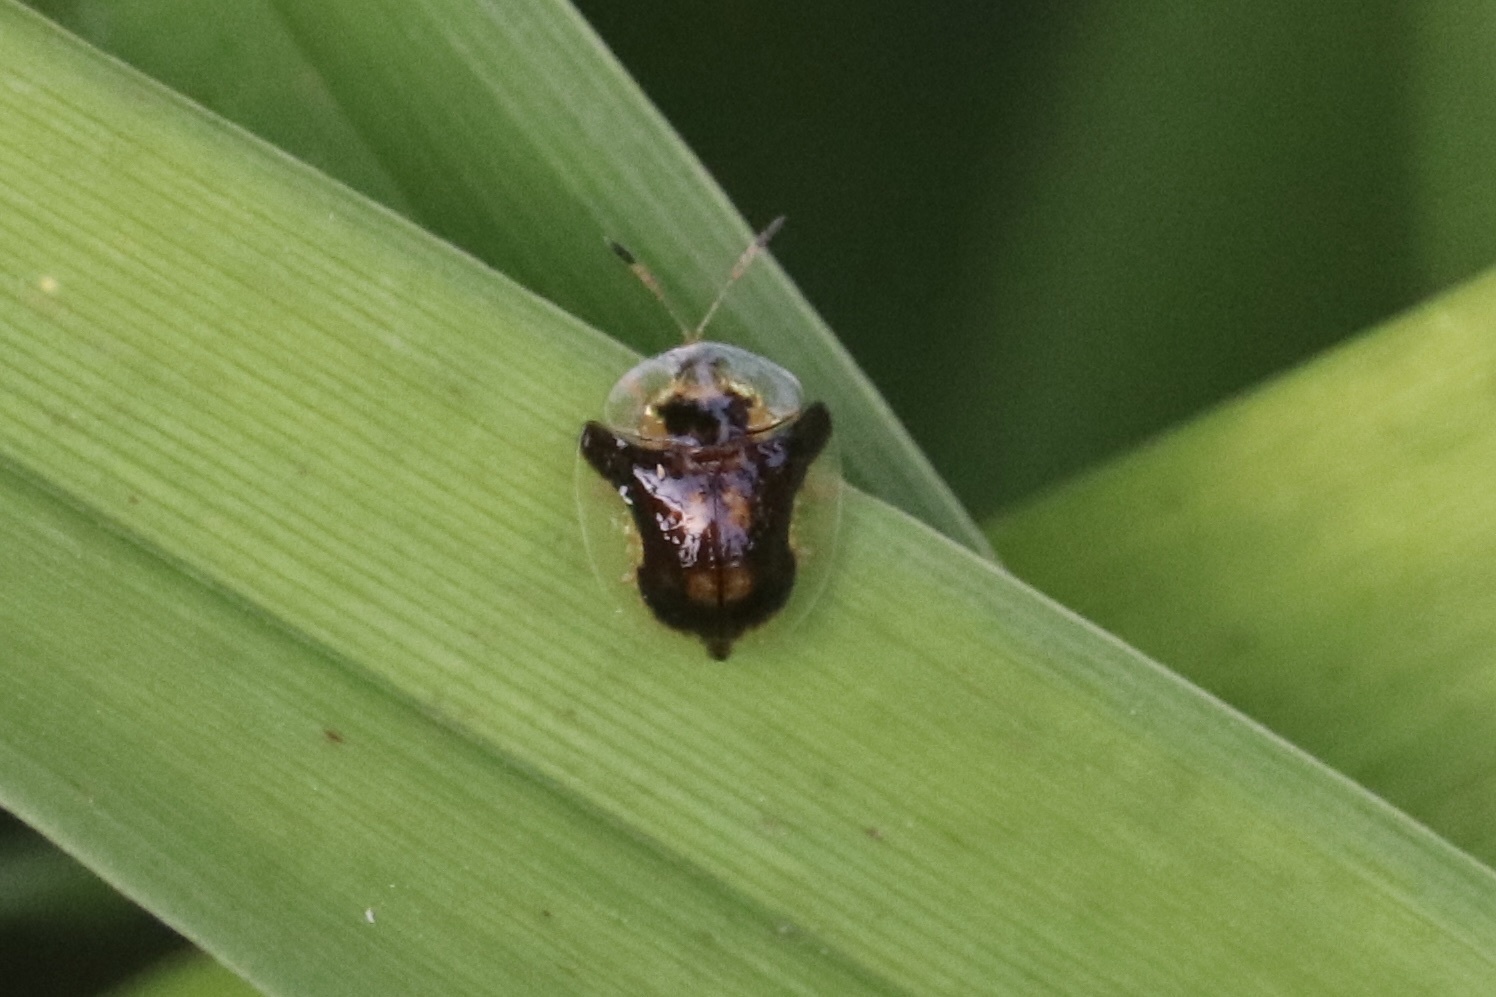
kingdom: Animalia
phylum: Arthropoda
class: Insecta
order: Coleoptera
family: Chrysomelidae
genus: Deloyala
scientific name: Deloyala guttata
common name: Mottled tortoise beetle
